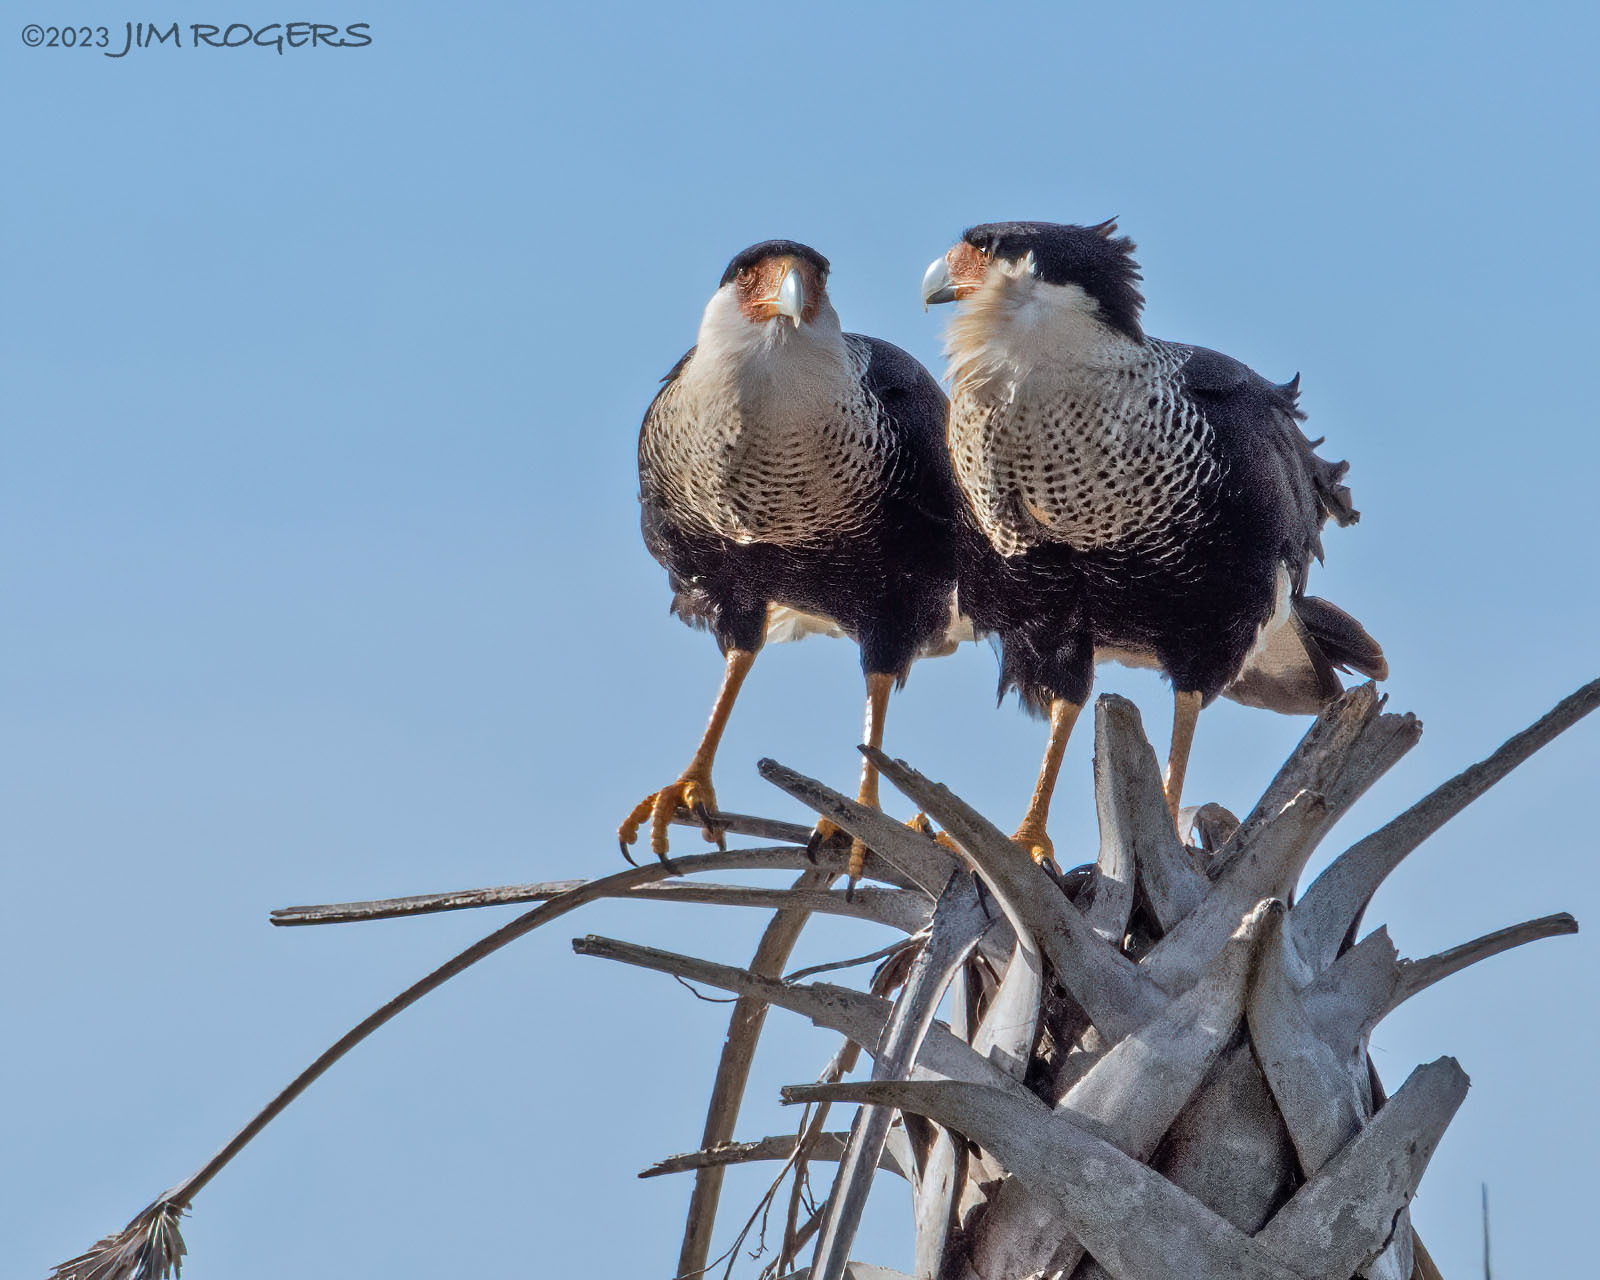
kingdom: Animalia
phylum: Chordata
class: Aves
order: Falconiformes
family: Falconidae
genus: Caracara
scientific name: Caracara plancus
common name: Southern caracara
